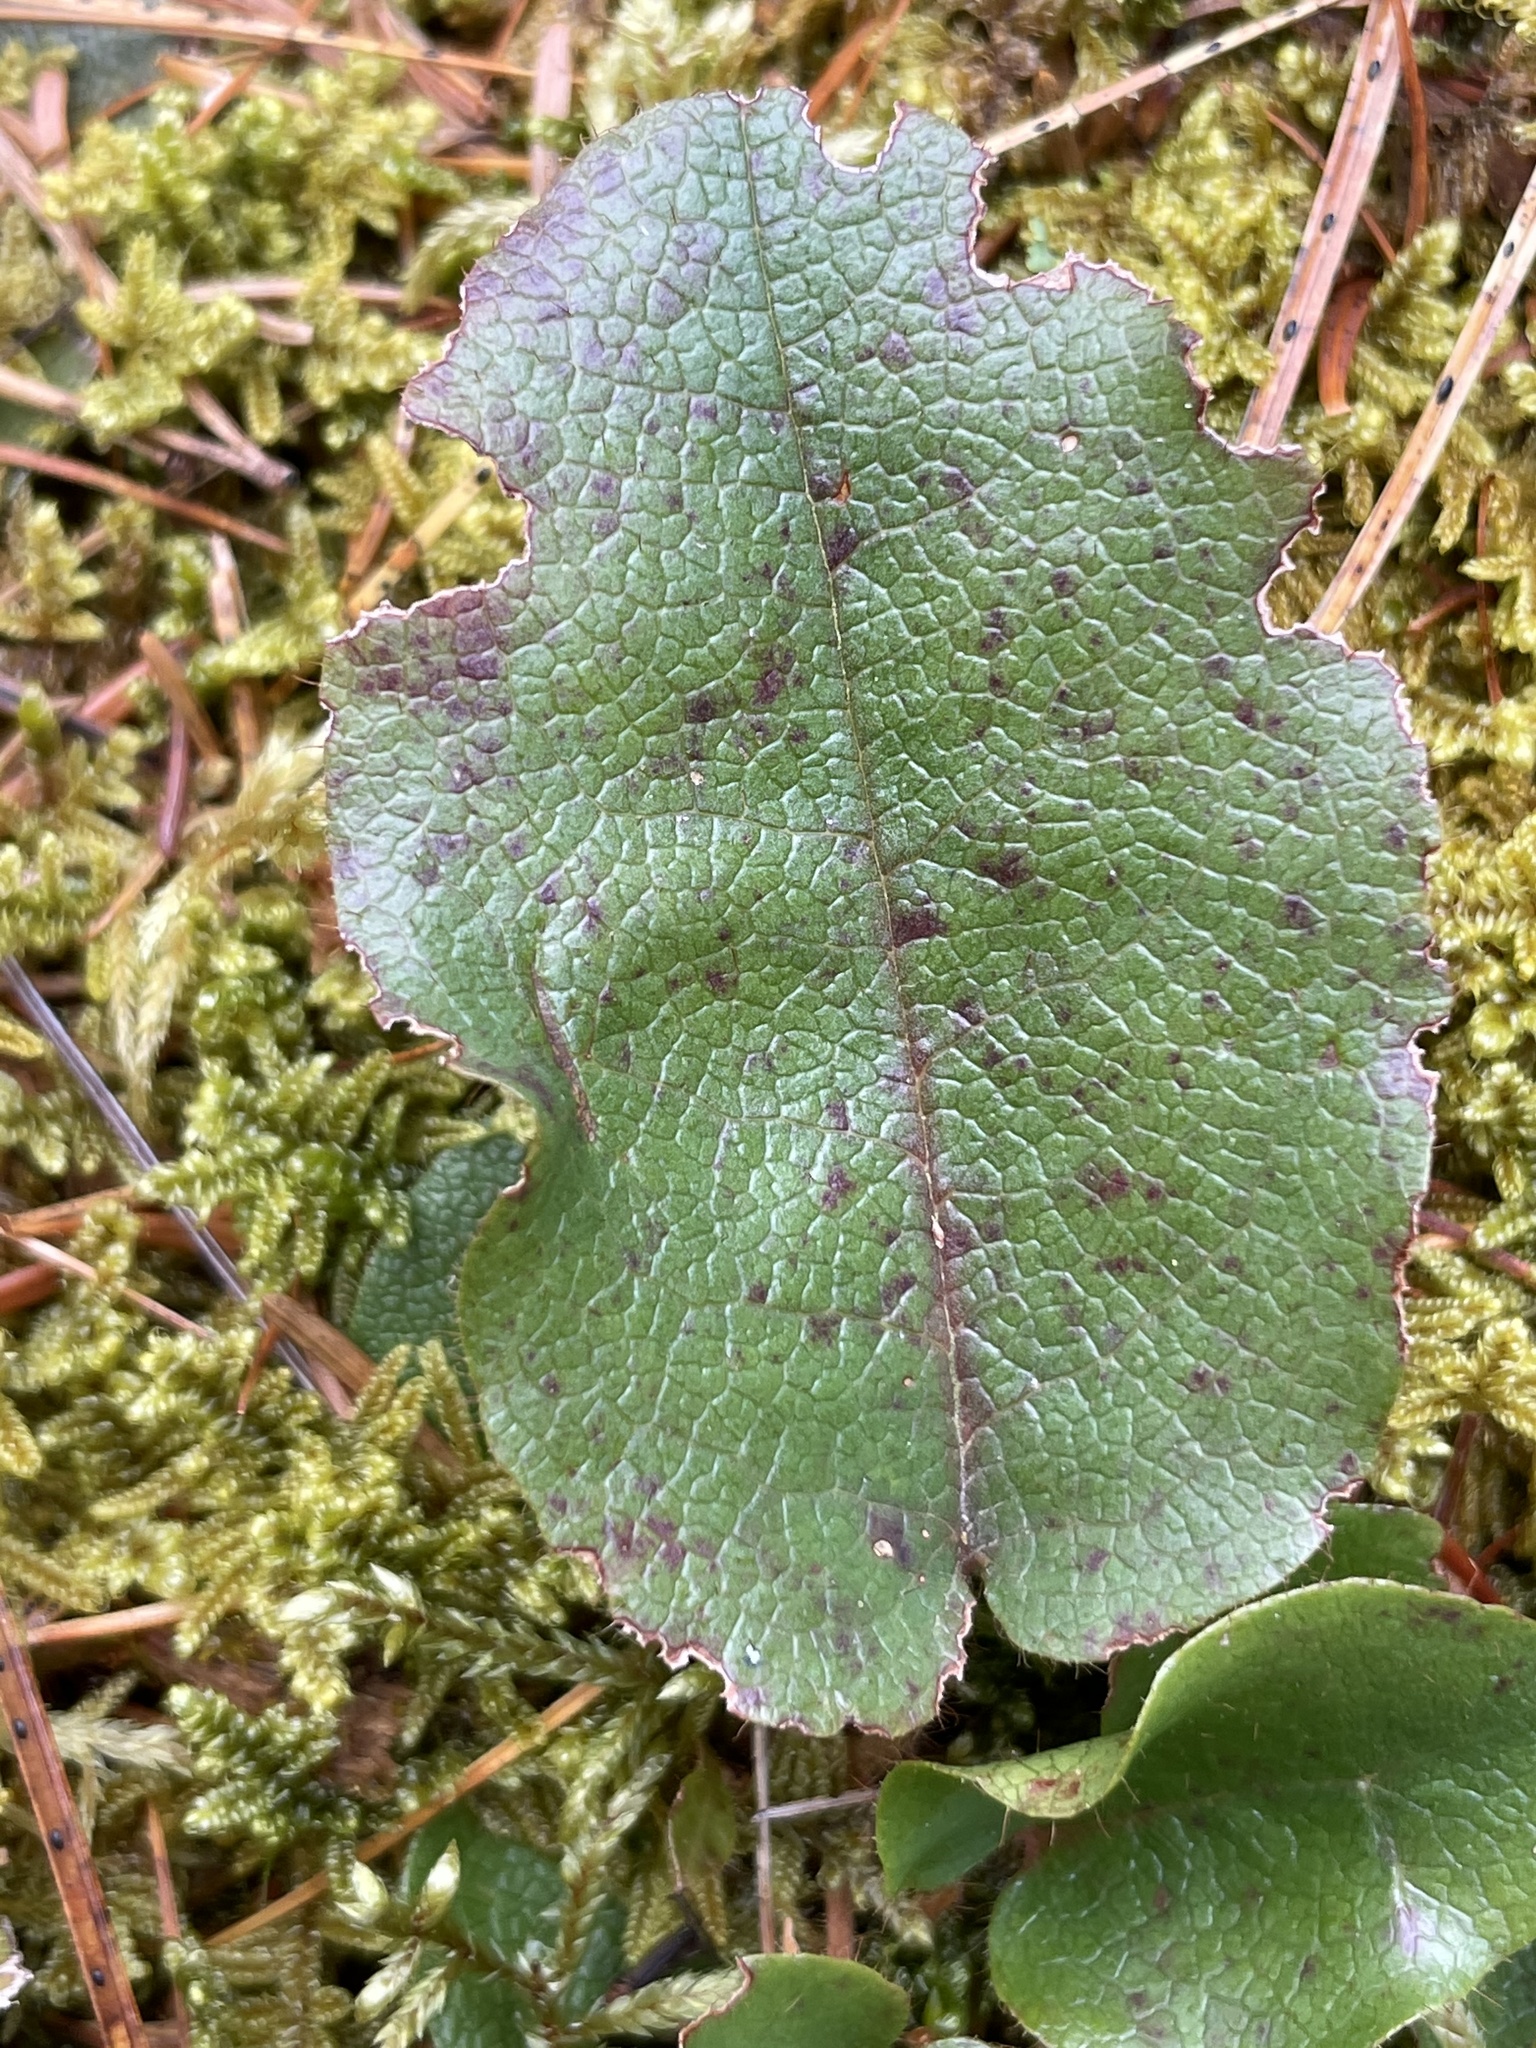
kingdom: Plantae
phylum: Tracheophyta
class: Magnoliopsida
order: Ericales
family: Ericaceae
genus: Epigaea
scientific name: Epigaea repens
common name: Gravelroot
